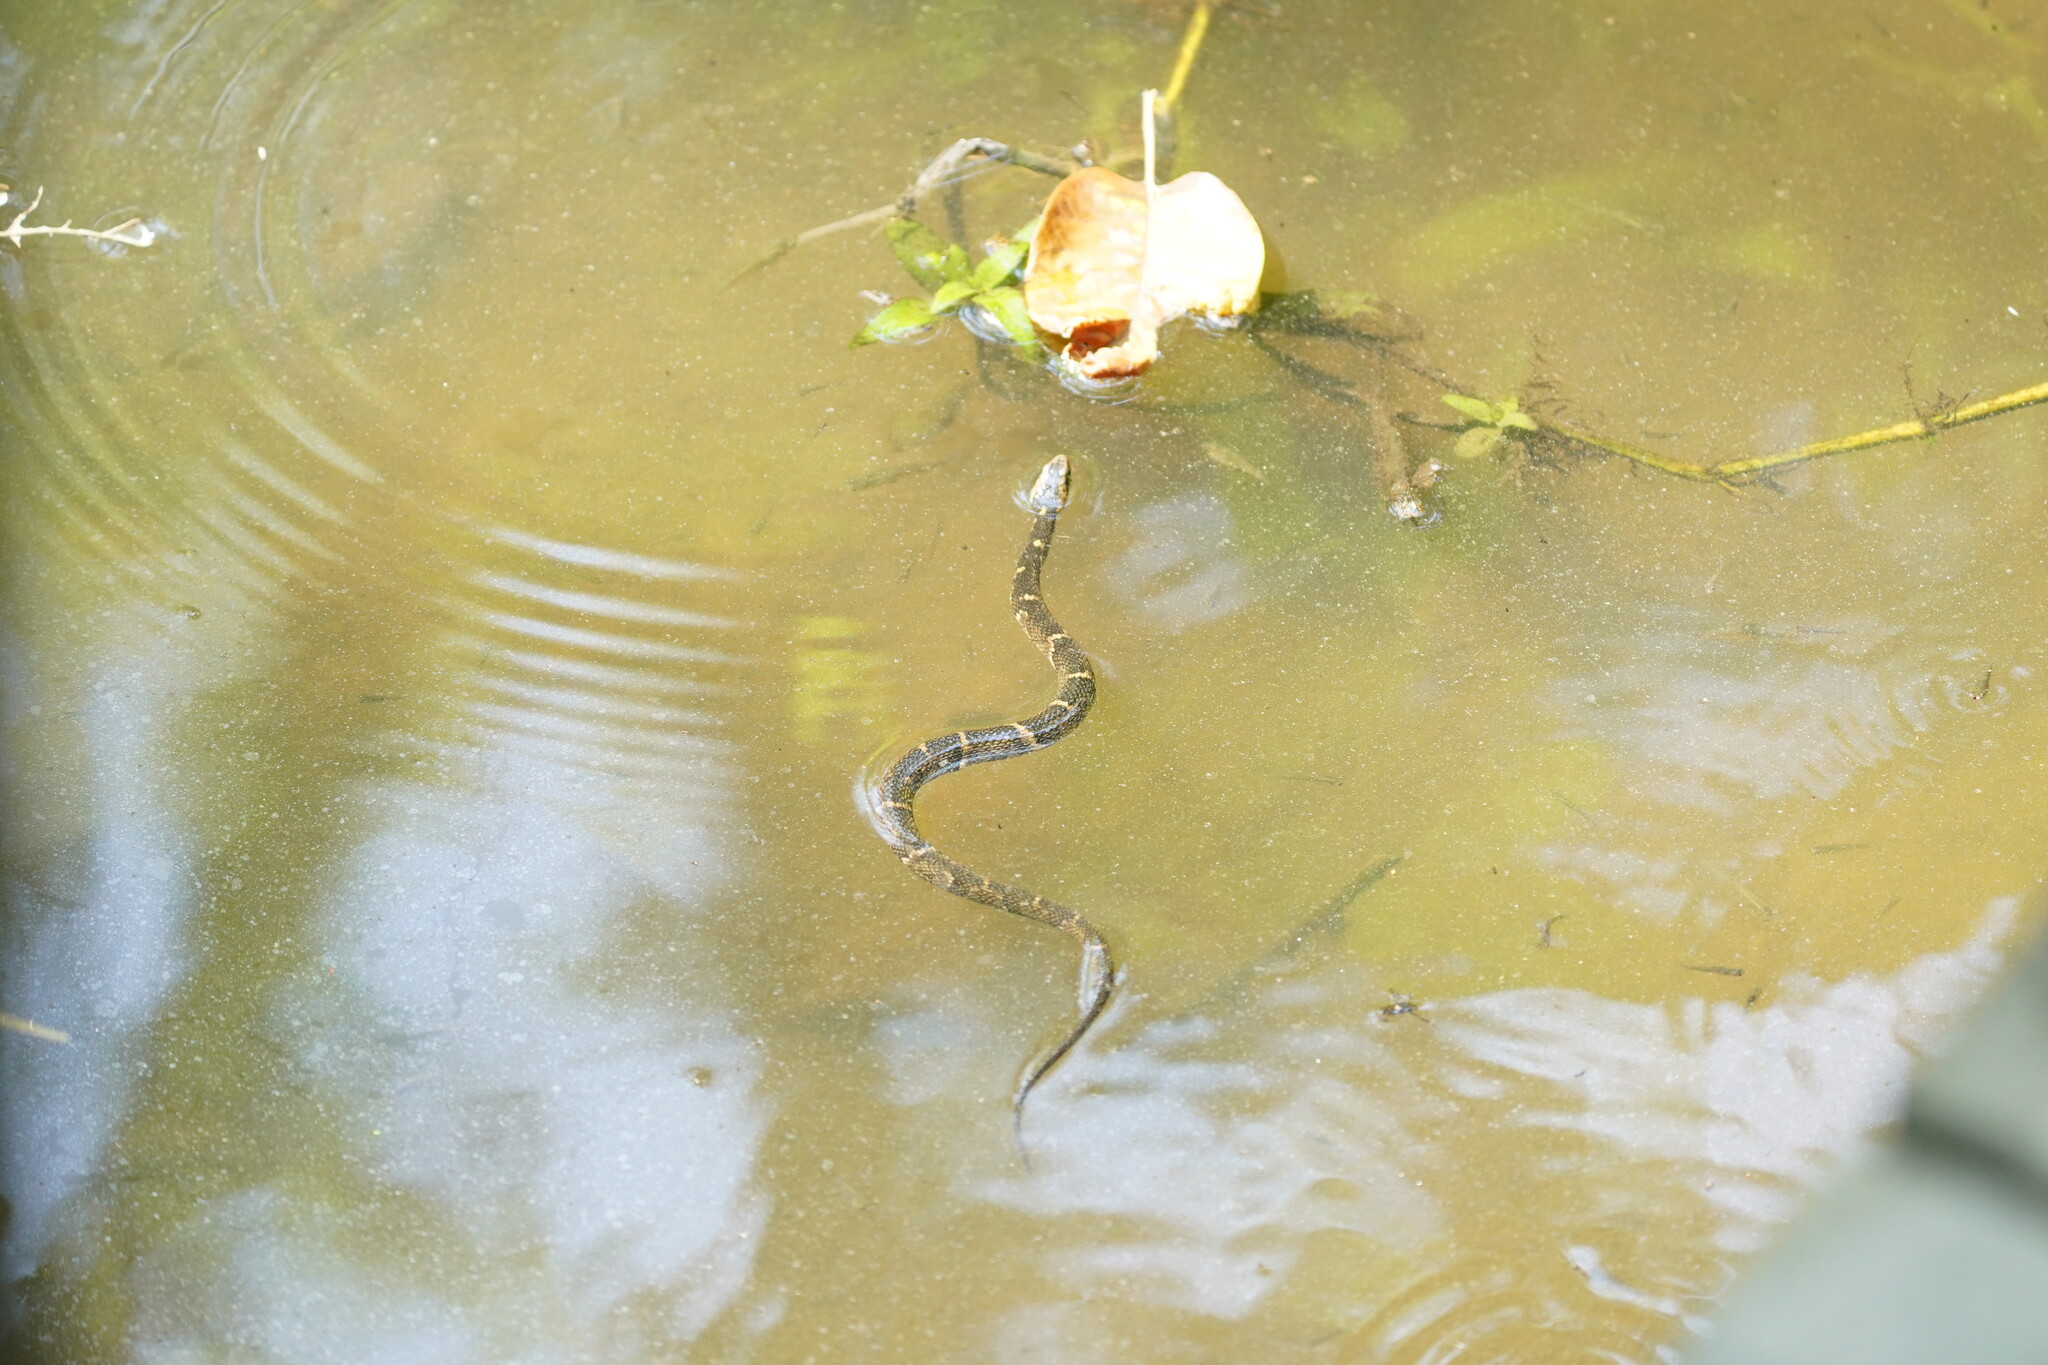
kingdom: Animalia
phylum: Chordata
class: Squamata
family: Colubridae
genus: Nerodia
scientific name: Nerodia fasciata
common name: Southern water snake
